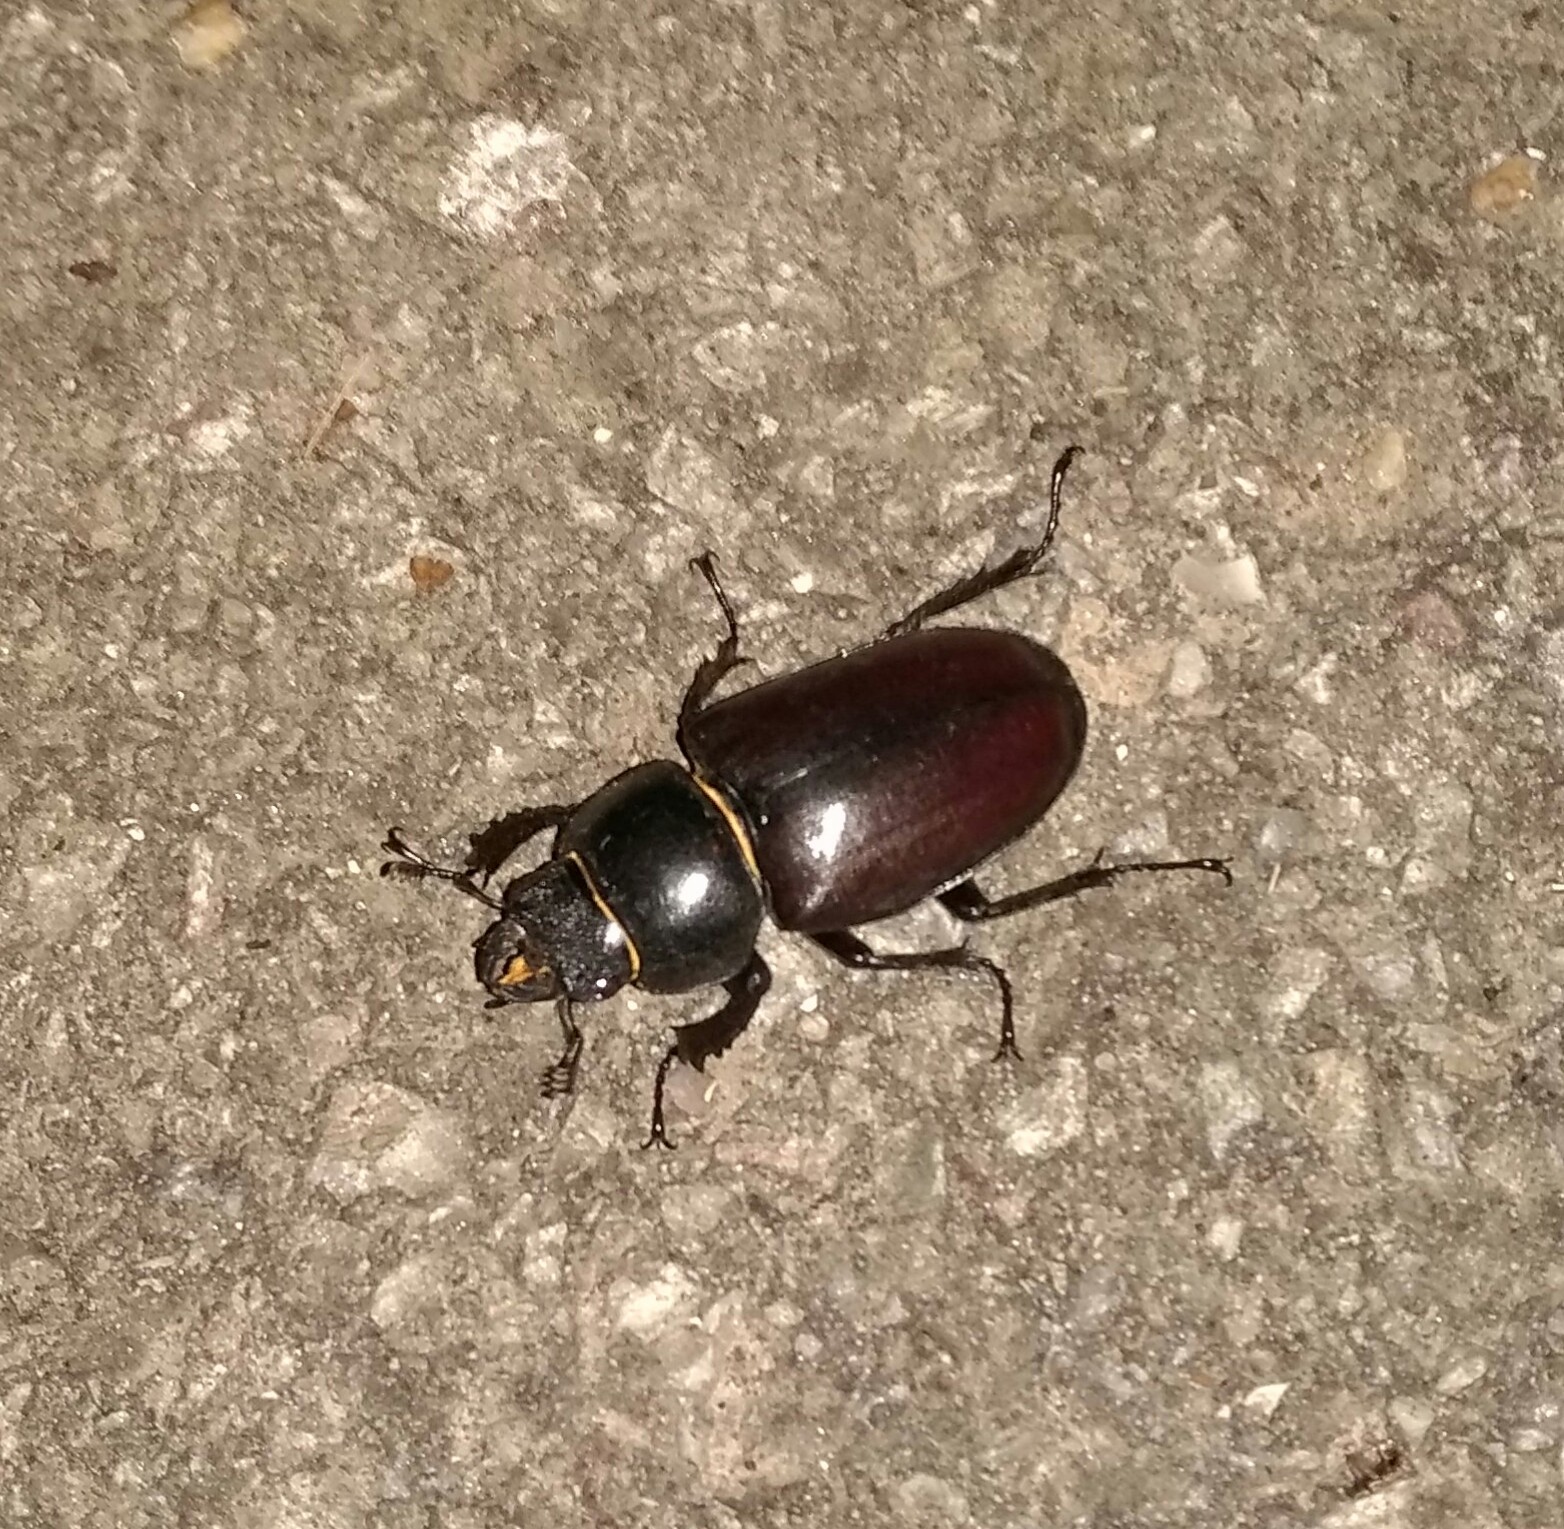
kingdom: Animalia
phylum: Arthropoda
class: Insecta
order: Coleoptera
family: Lucanidae
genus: Lucanus
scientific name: Lucanus cervus
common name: Stag beetle
